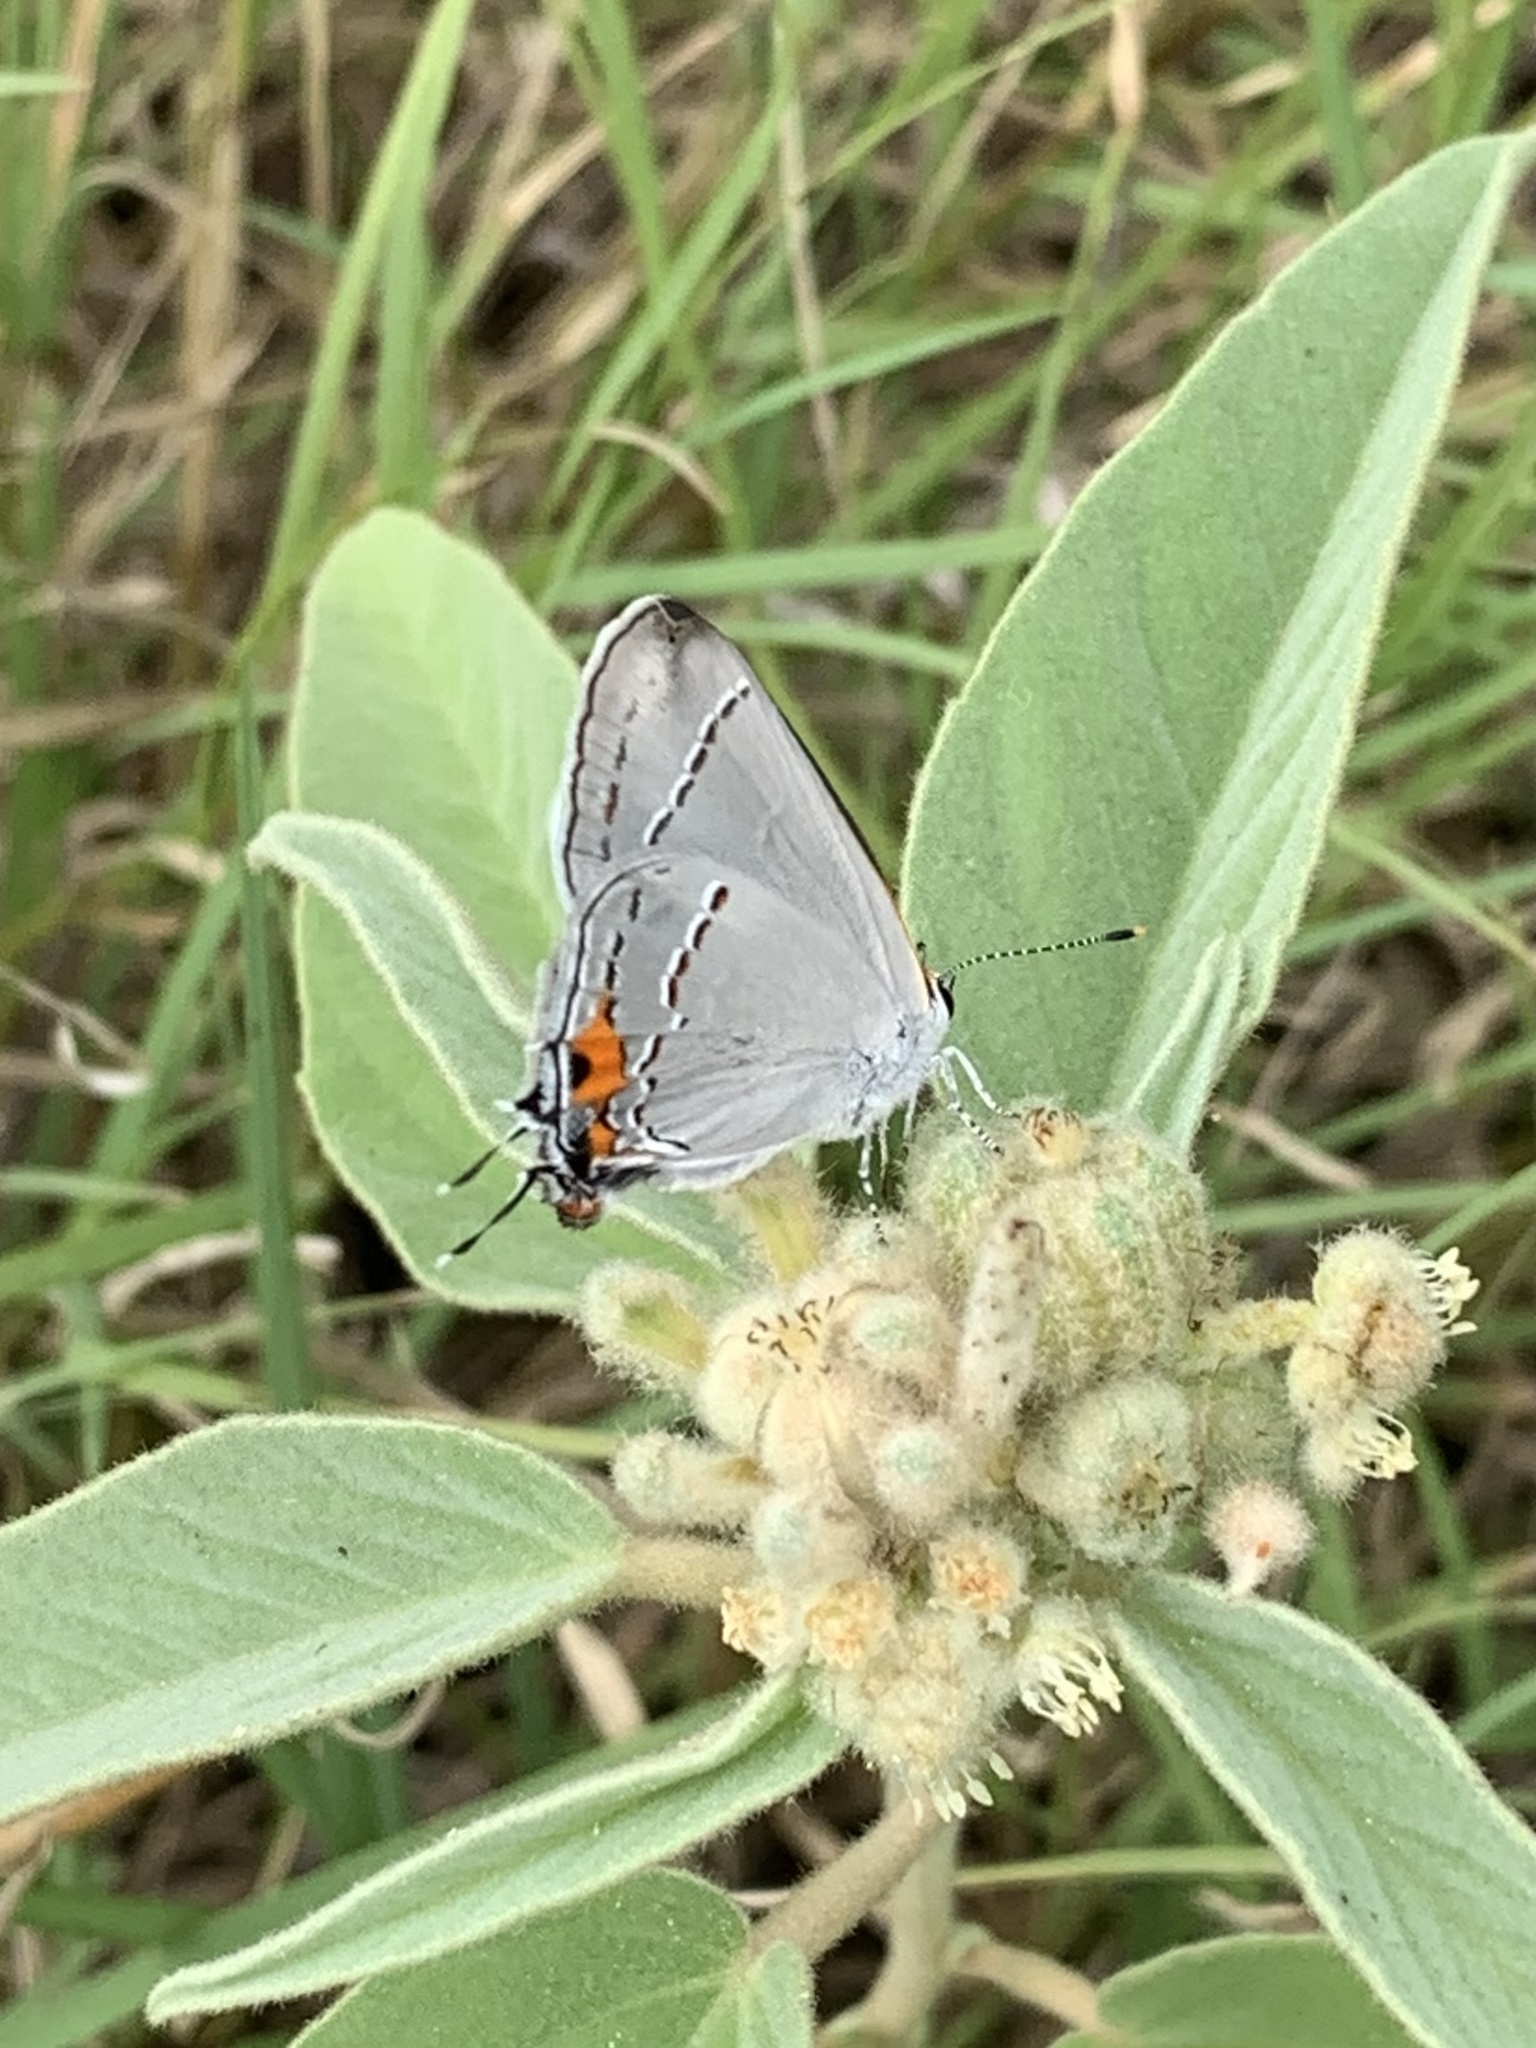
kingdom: Animalia
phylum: Arthropoda
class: Insecta
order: Lepidoptera
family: Lycaenidae
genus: Strymon
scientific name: Strymon melinus
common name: Gray hairstreak
